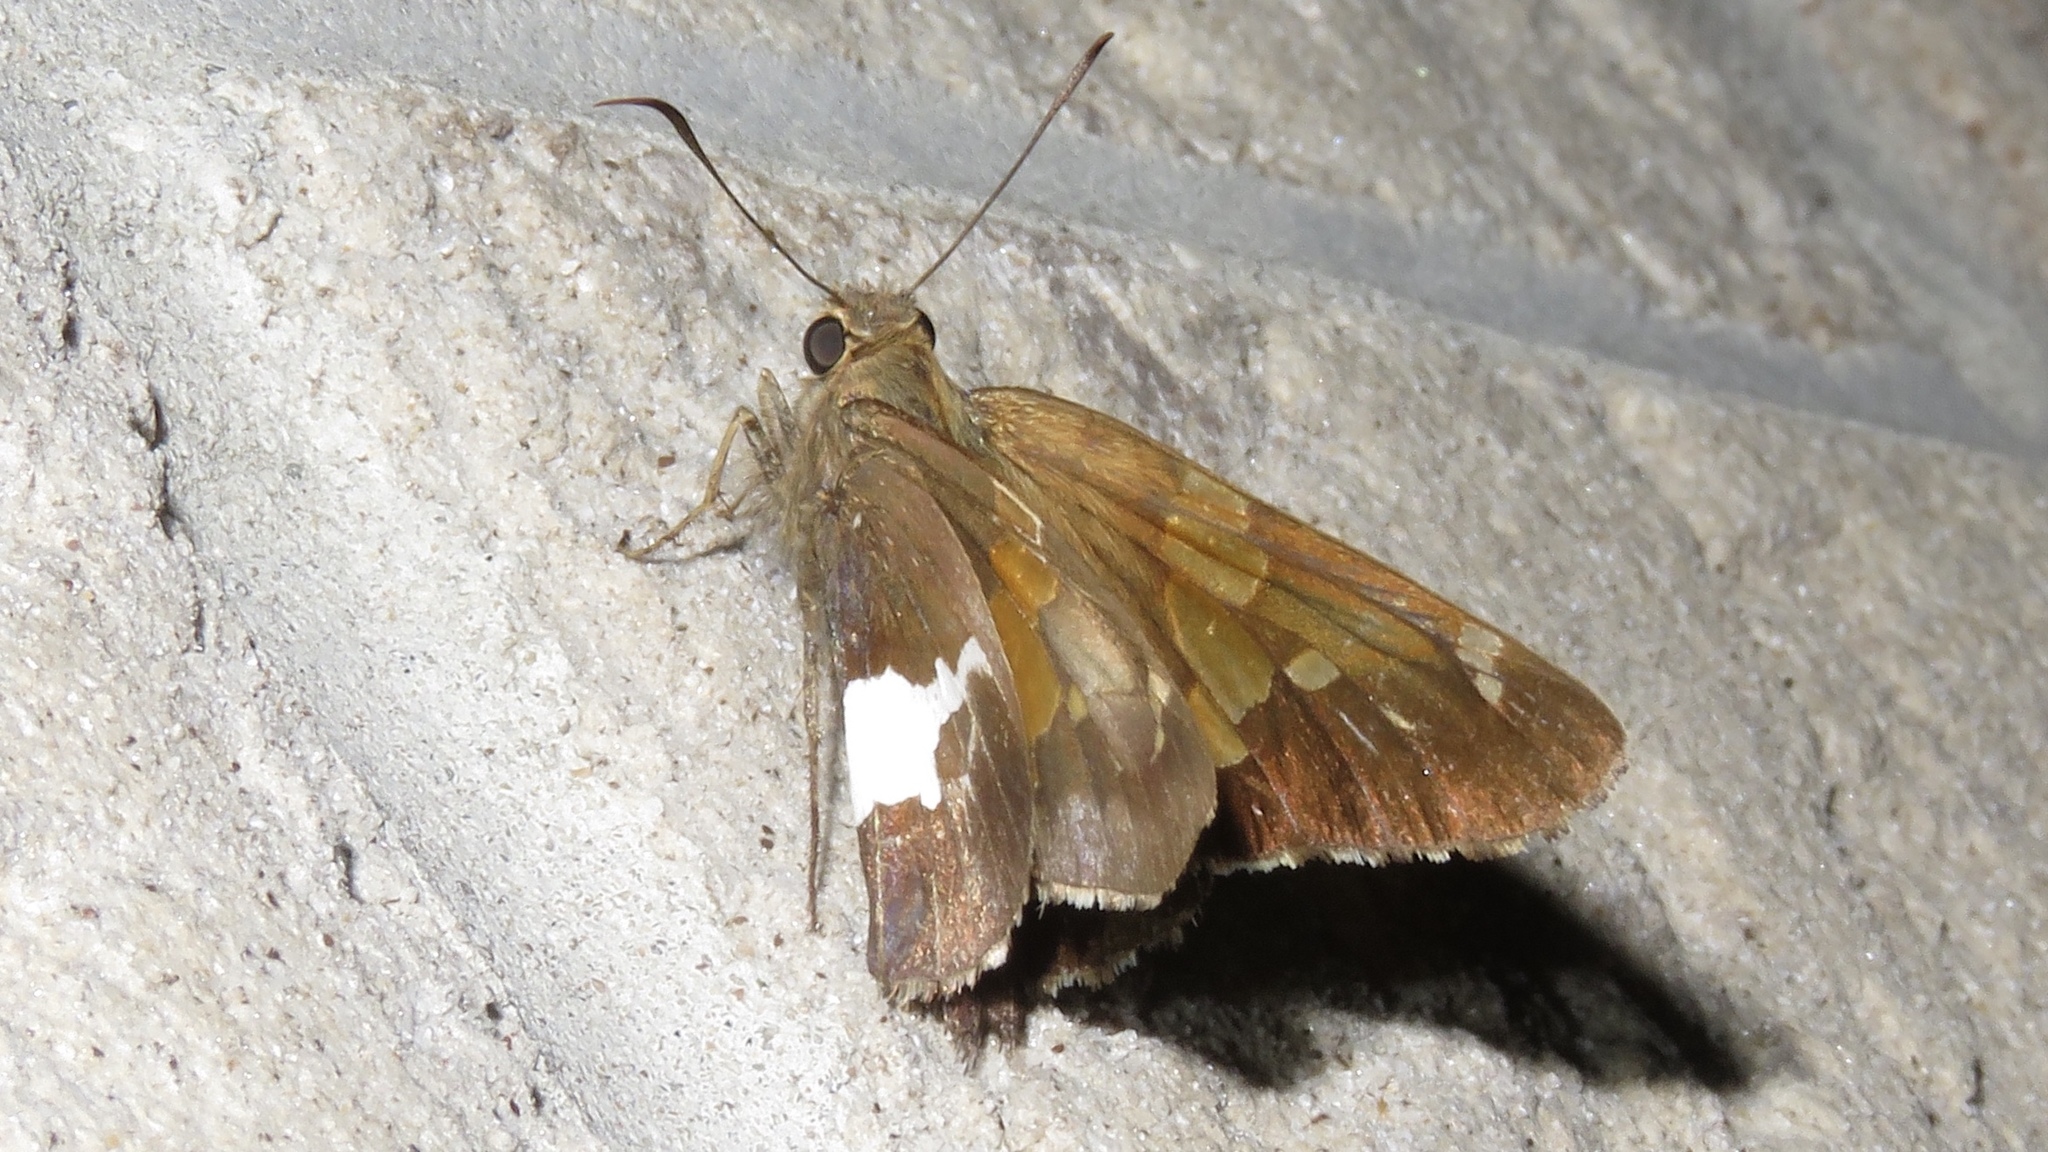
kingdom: Animalia
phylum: Arthropoda
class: Insecta
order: Lepidoptera
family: Hesperiidae
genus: Epargyreus
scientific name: Epargyreus clarus
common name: Silver-spotted skipper
